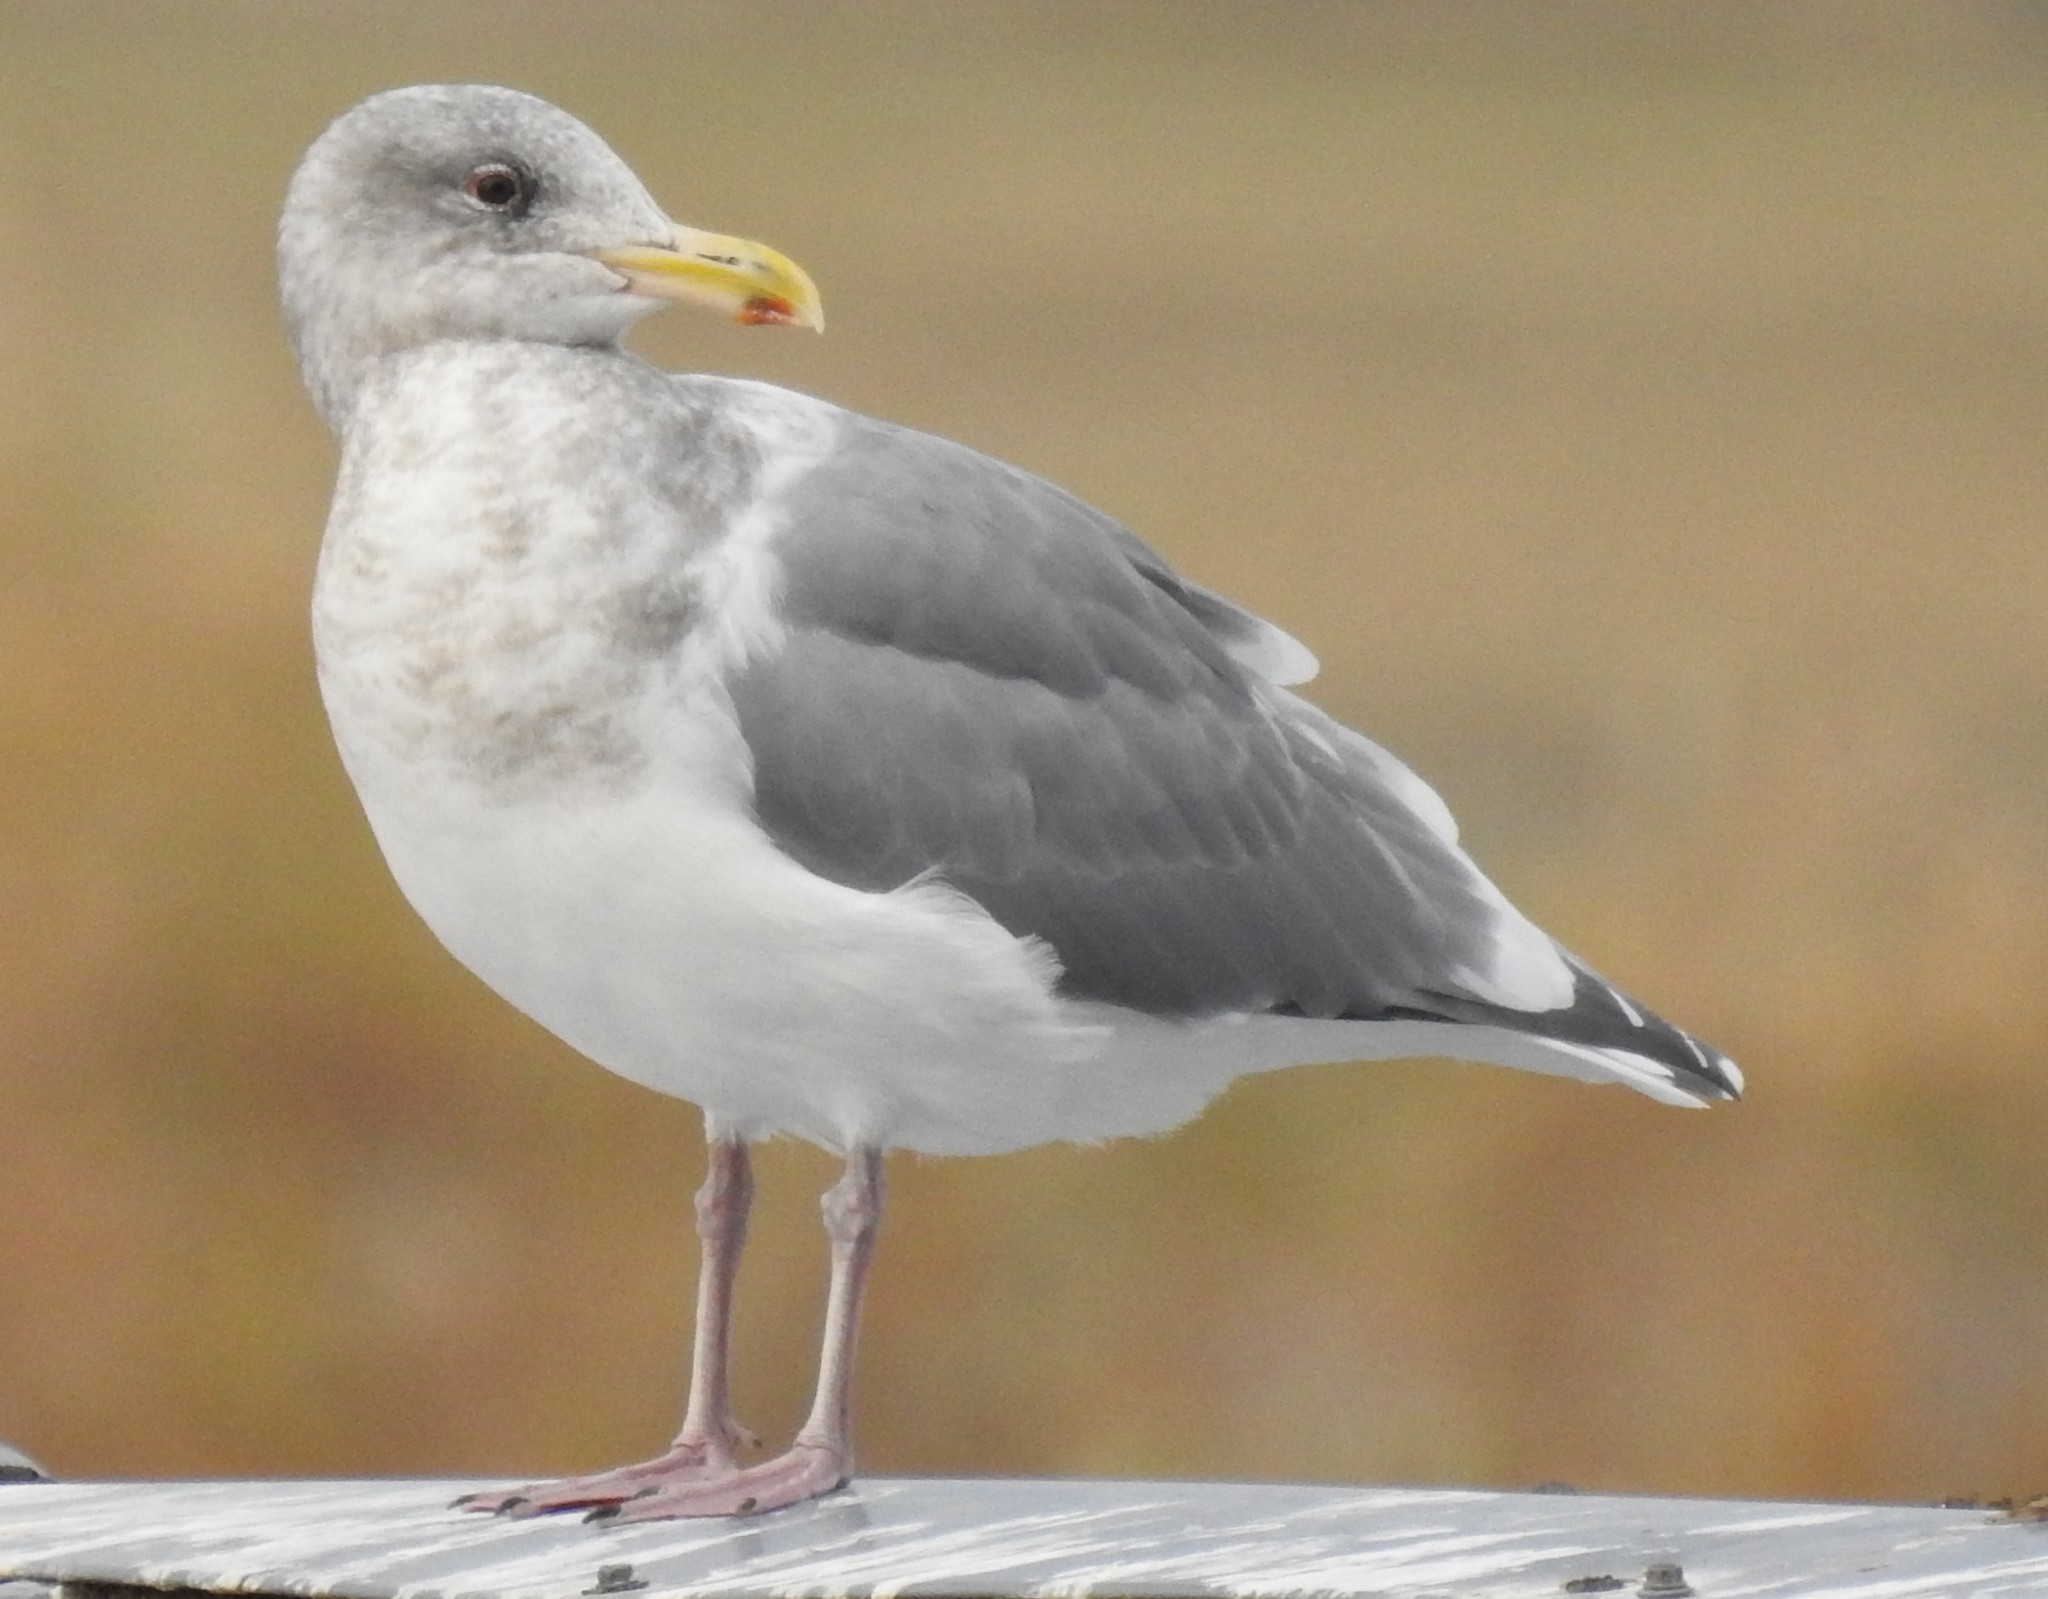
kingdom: Animalia
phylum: Chordata
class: Aves
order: Charadriiformes
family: Laridae
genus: Larus
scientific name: Larus
